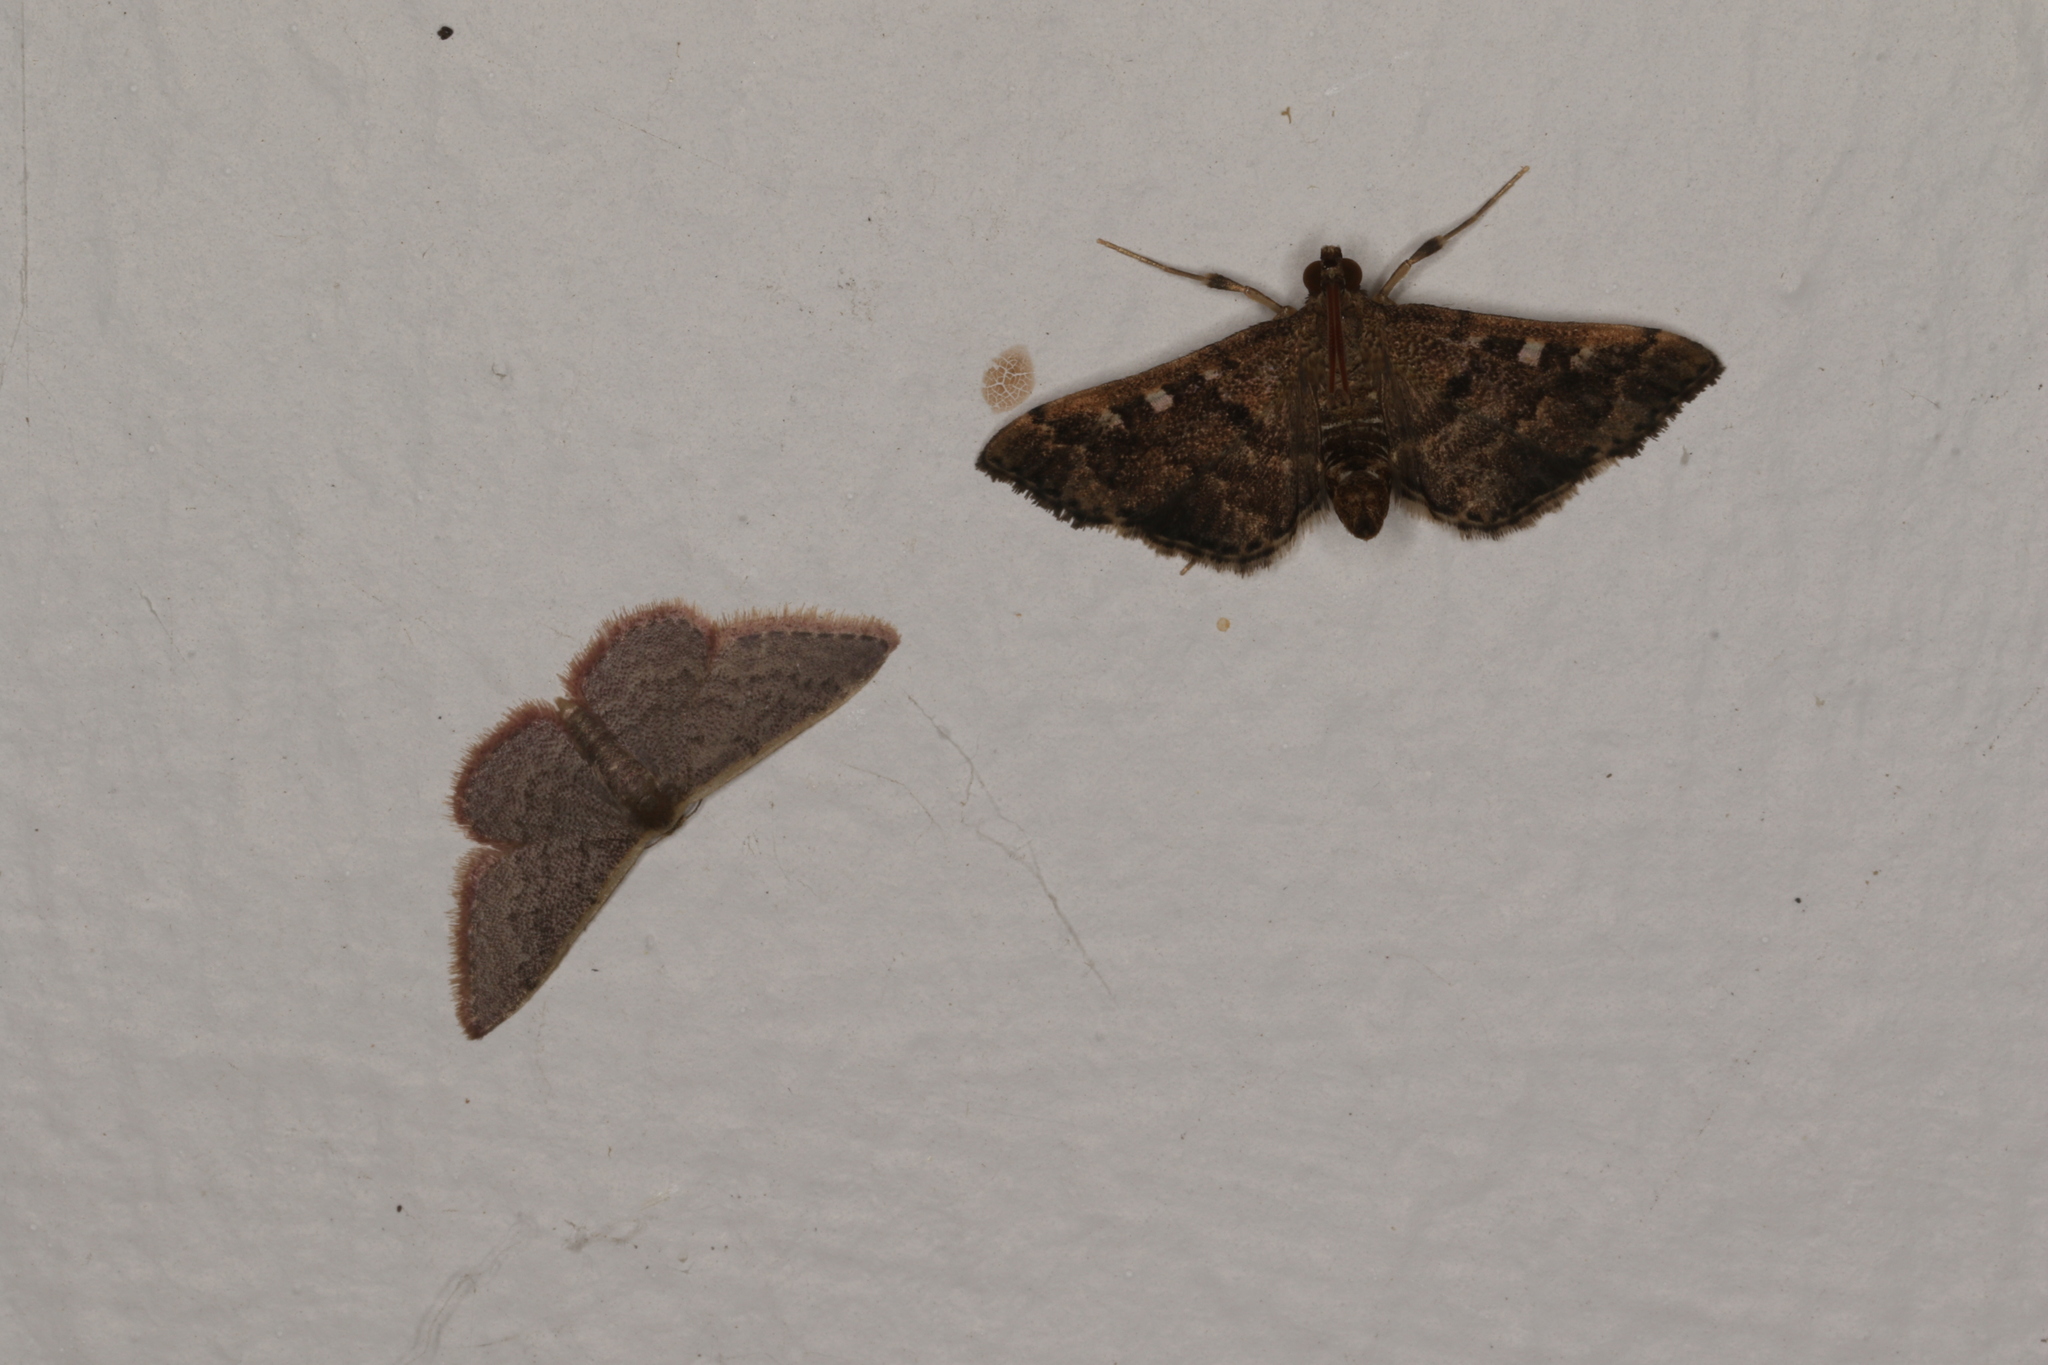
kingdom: Animalia
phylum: Arthropoda
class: Insecta
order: Lepidoptera
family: Geometridae
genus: Idaea
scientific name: Idaea inversata
